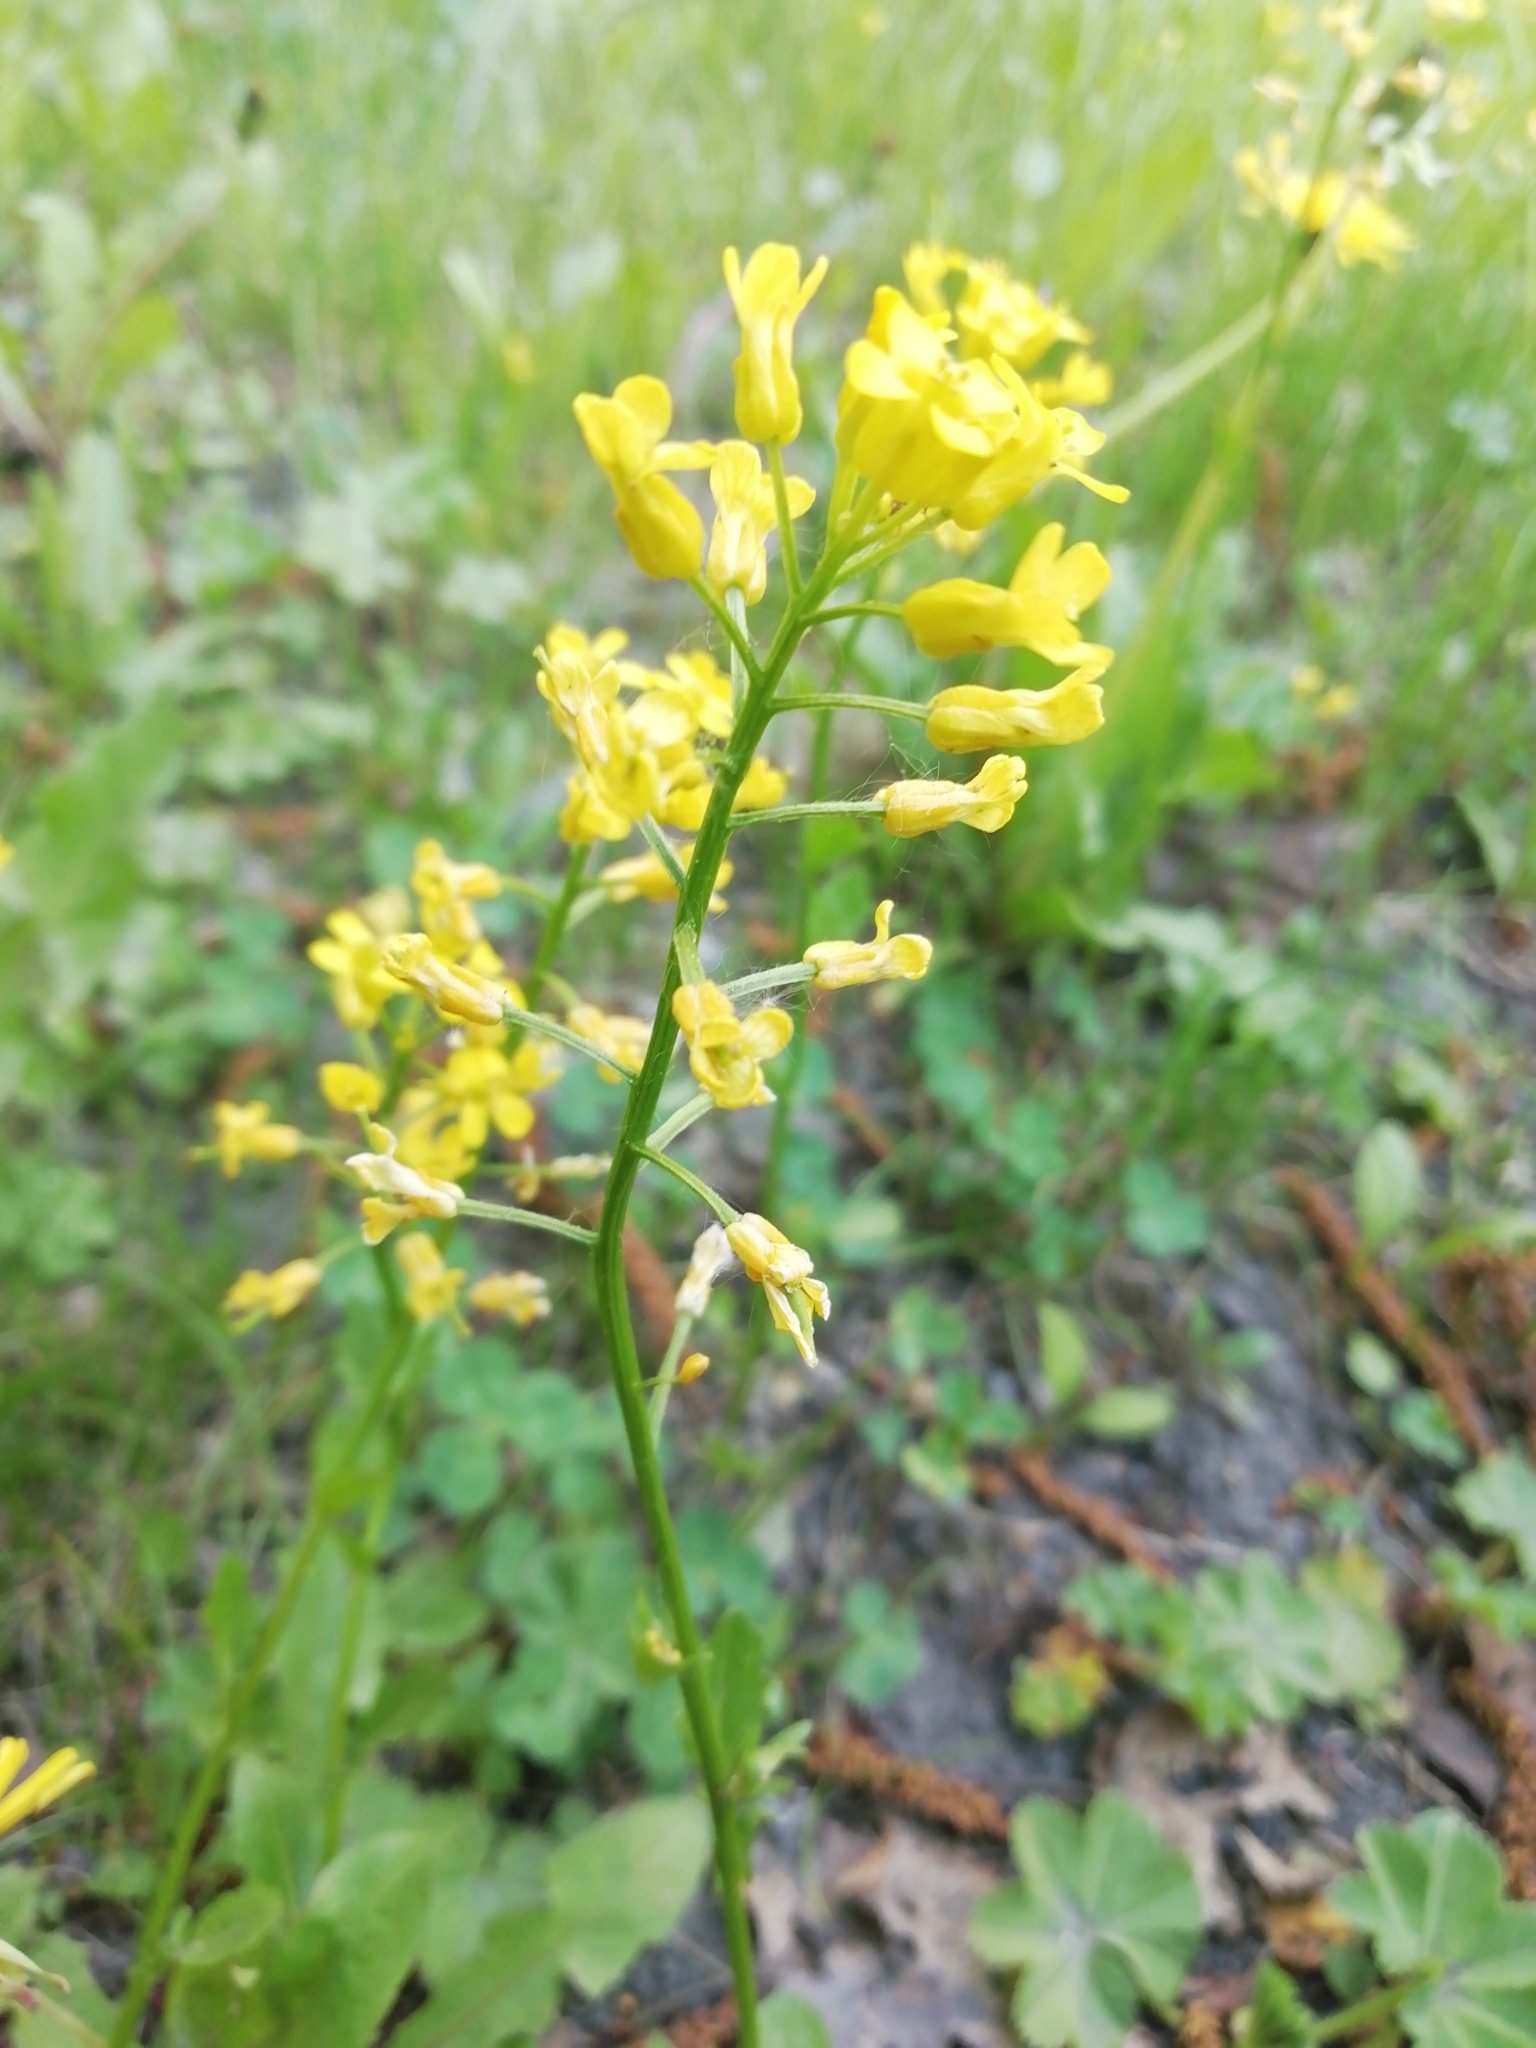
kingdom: Plantae
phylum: Tracheophyta
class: Magnoliopsida
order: Brassicales
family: Brassicaceae
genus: Barbarea
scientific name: Barbarea vulgaris
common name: Cressy-greens
